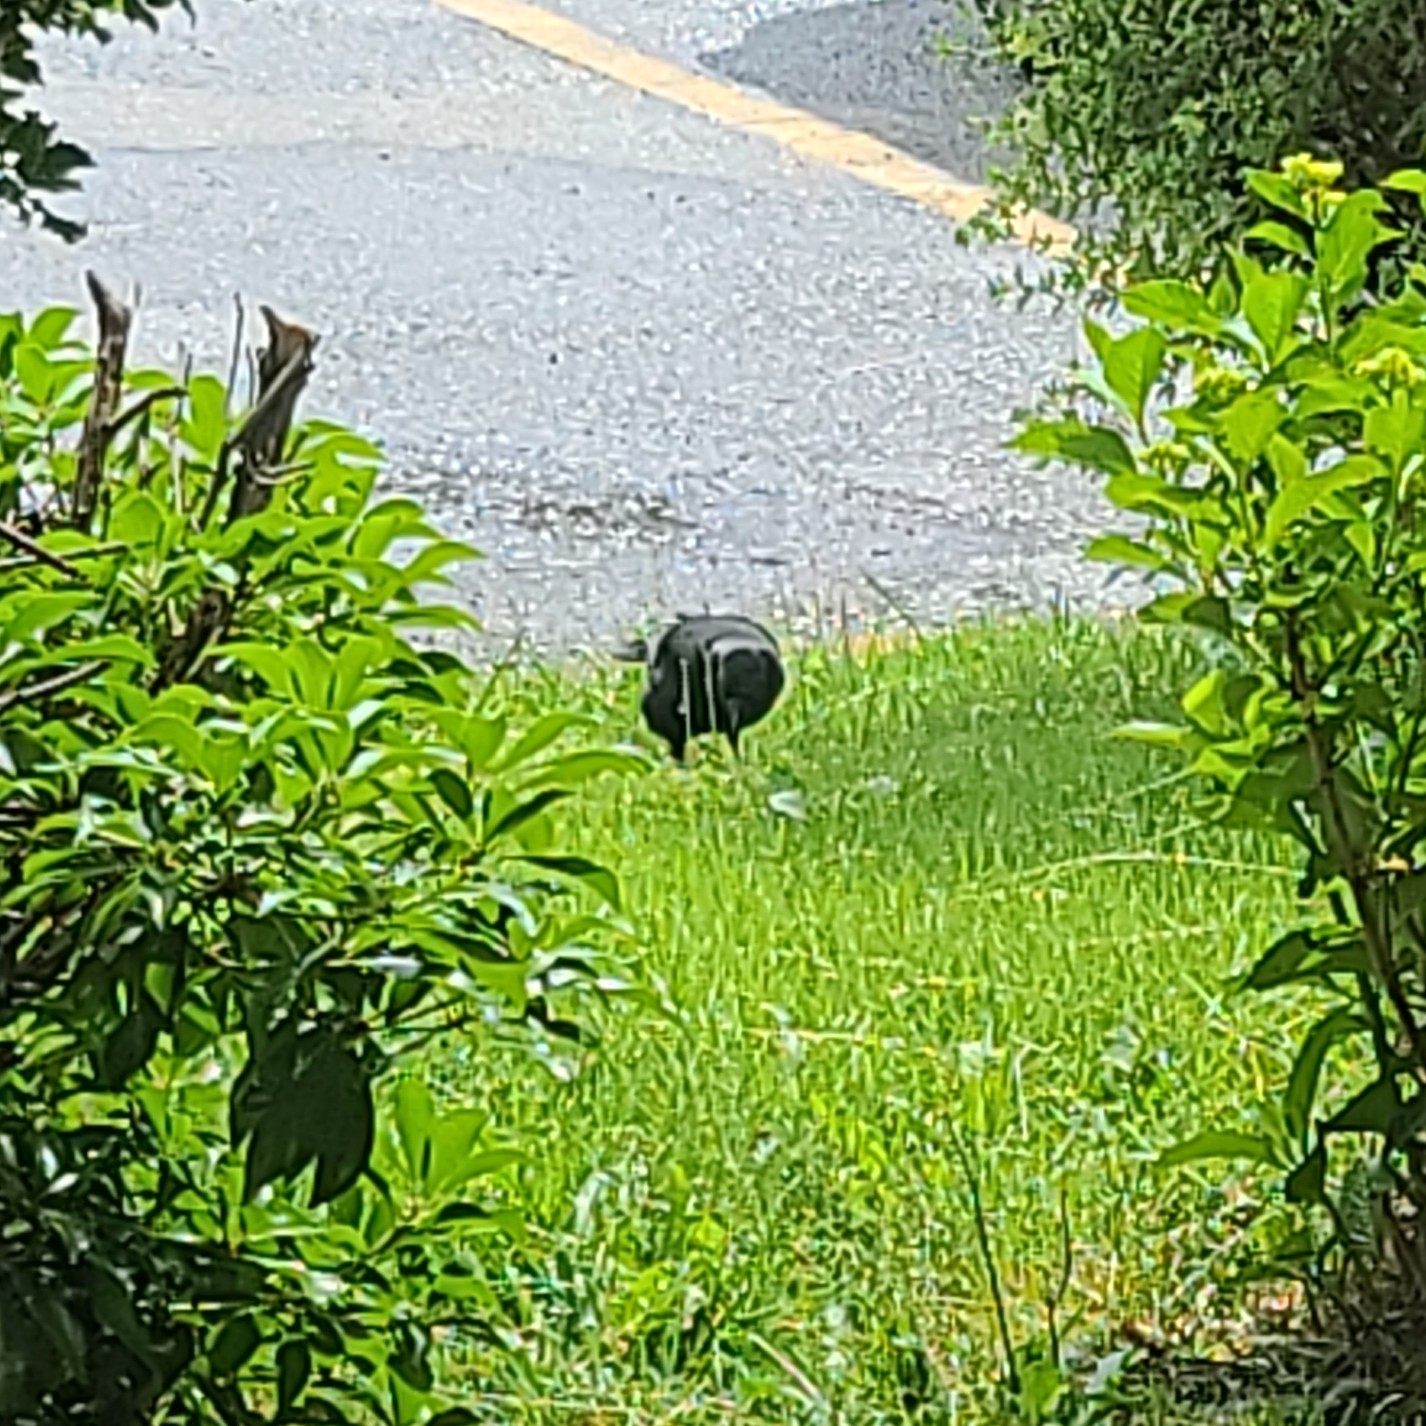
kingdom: Animalia
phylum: Chordata
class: Aves
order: Passeriformes
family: Corvidae
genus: Corvus
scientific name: Corvus brachyrhynchos
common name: American crow
